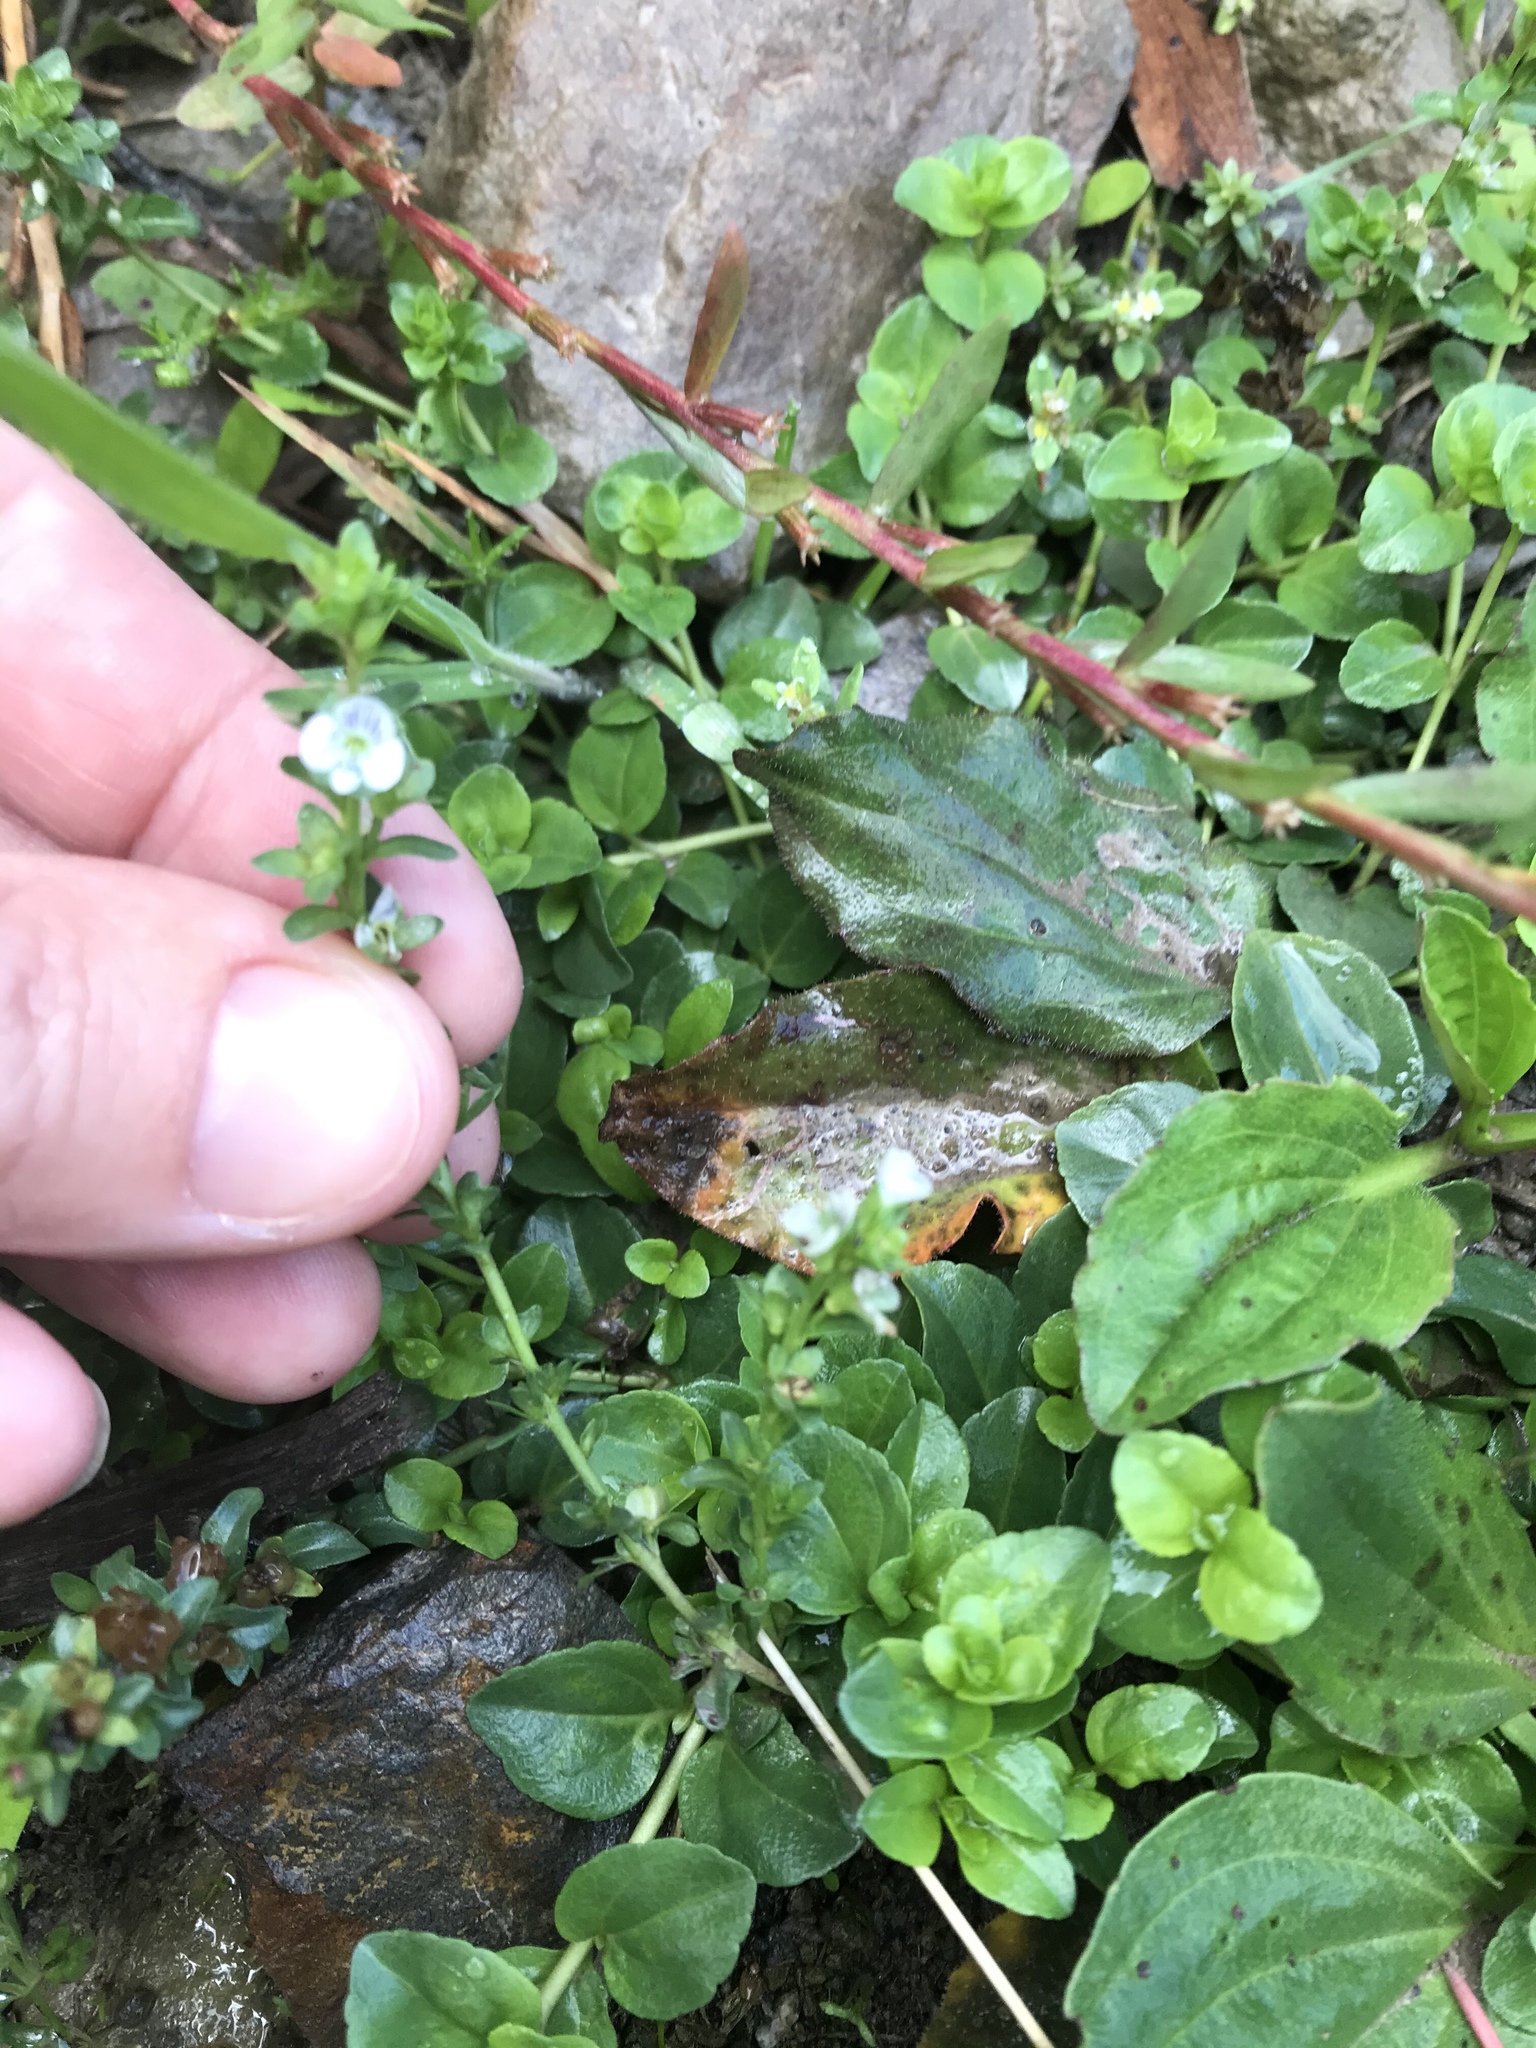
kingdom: Plantae
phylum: Tracheophyta
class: Magnoliopsida
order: Lamiales
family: Plantaginaceae
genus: Veronica
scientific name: Veronica serpyllifolia
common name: Thyme-leaved speedwell
